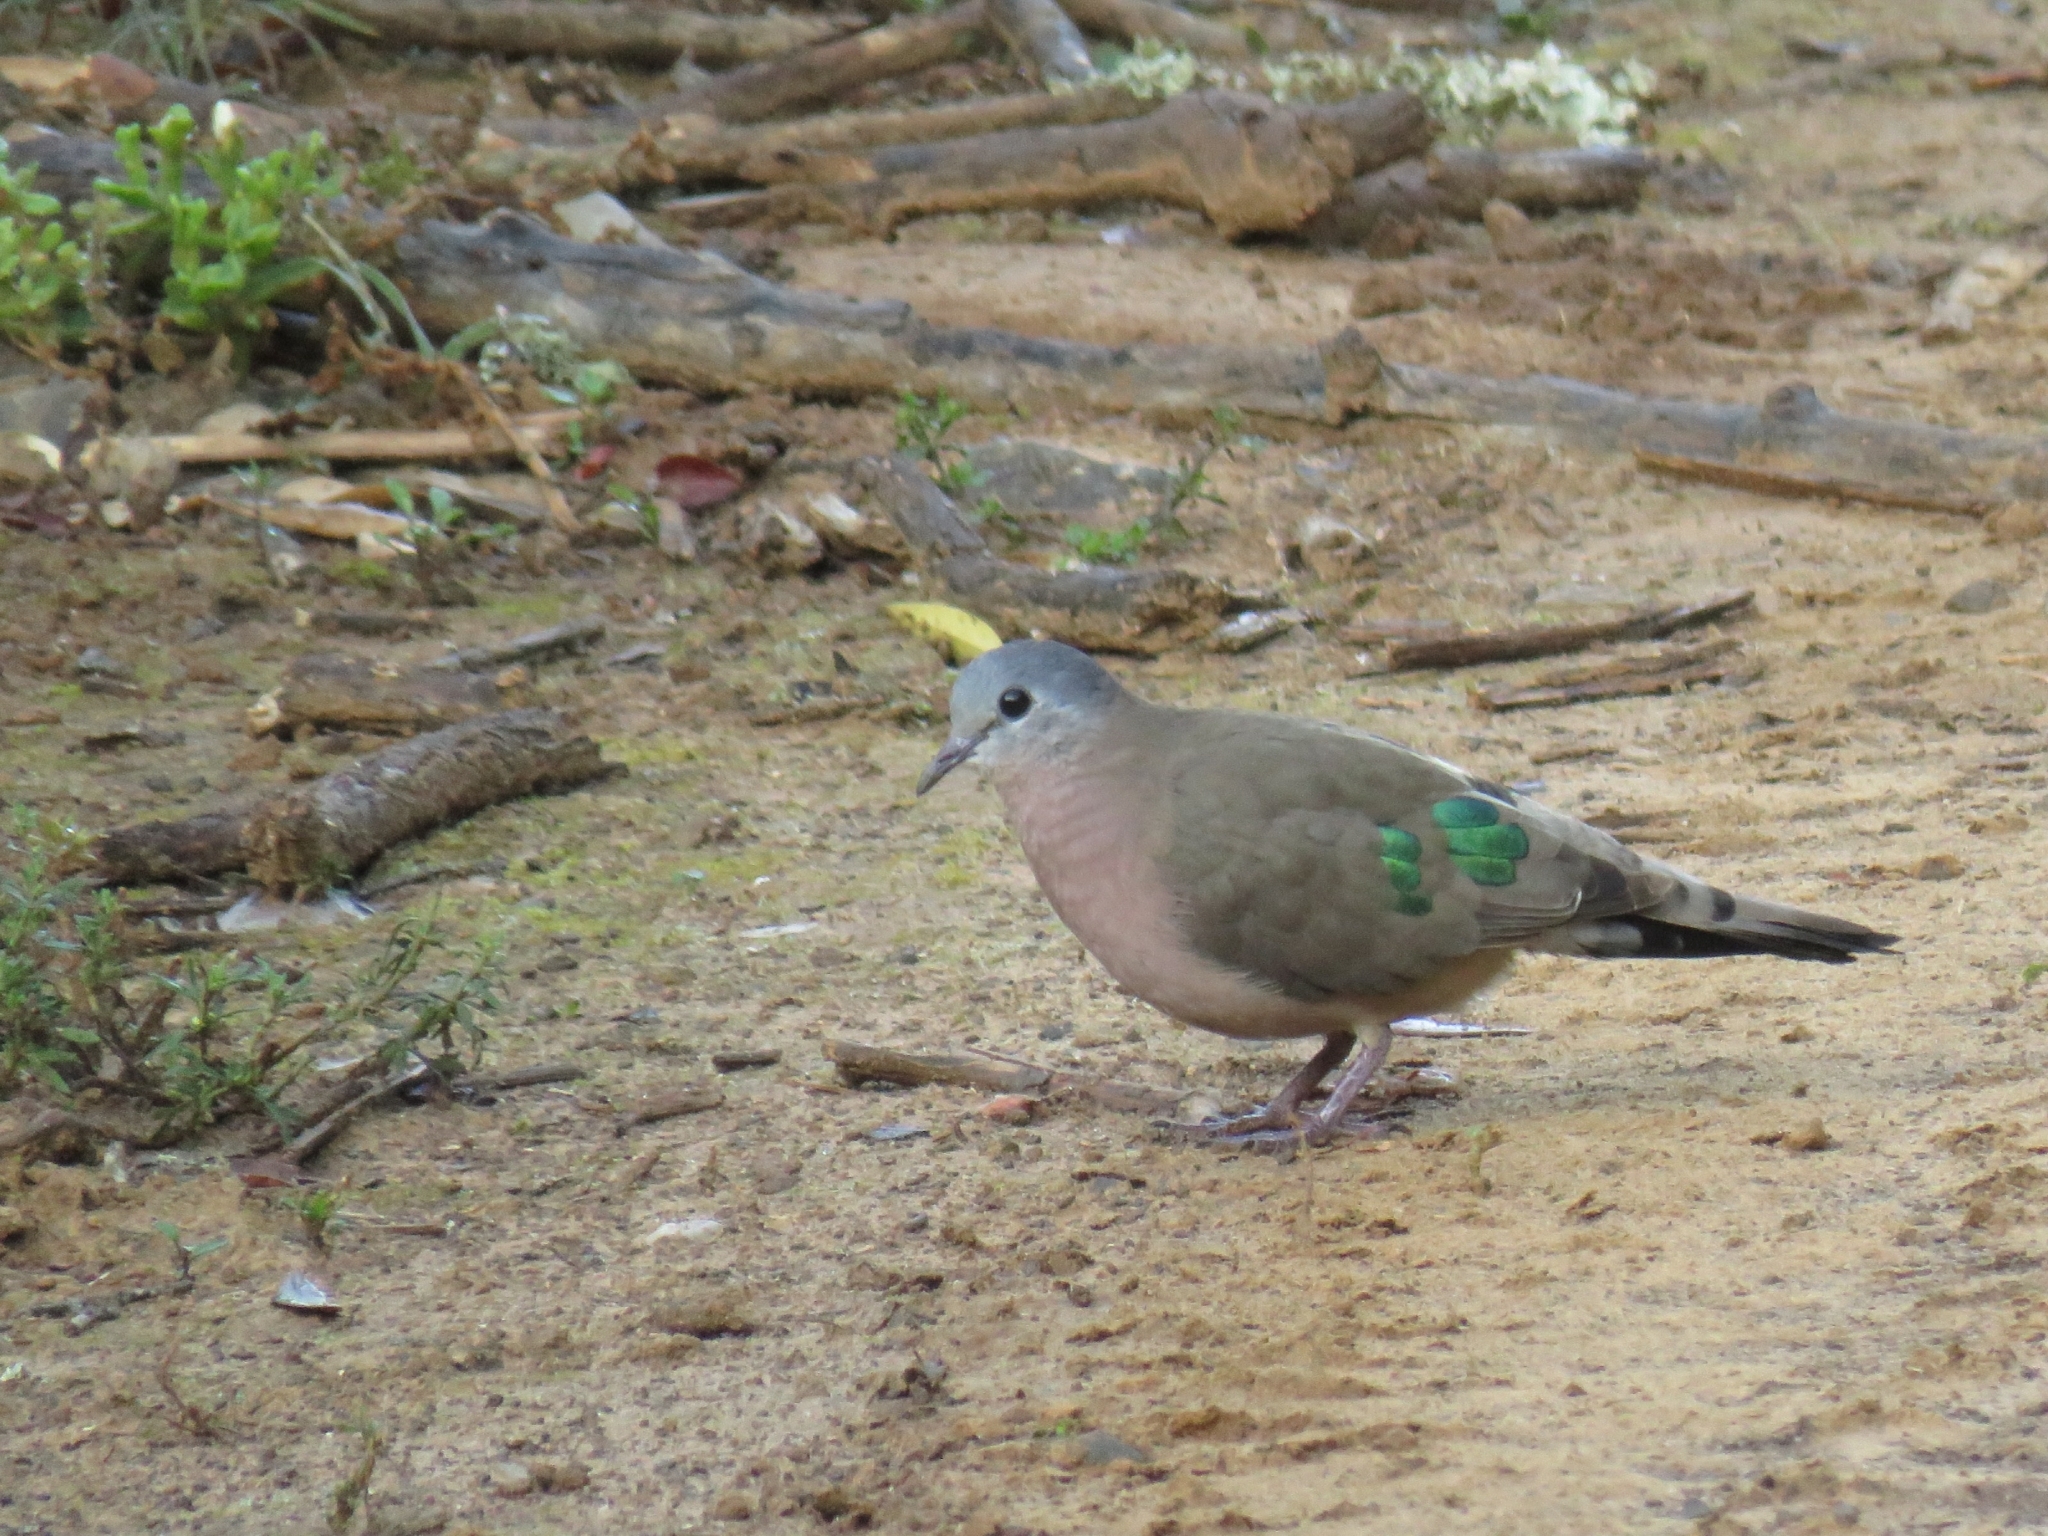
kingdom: Animalia
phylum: Chordata
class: Aves
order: Columbiformes
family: Columbidae
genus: Turtur
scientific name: Turtur chalcospilos
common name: Emerald-spotted wood dove
